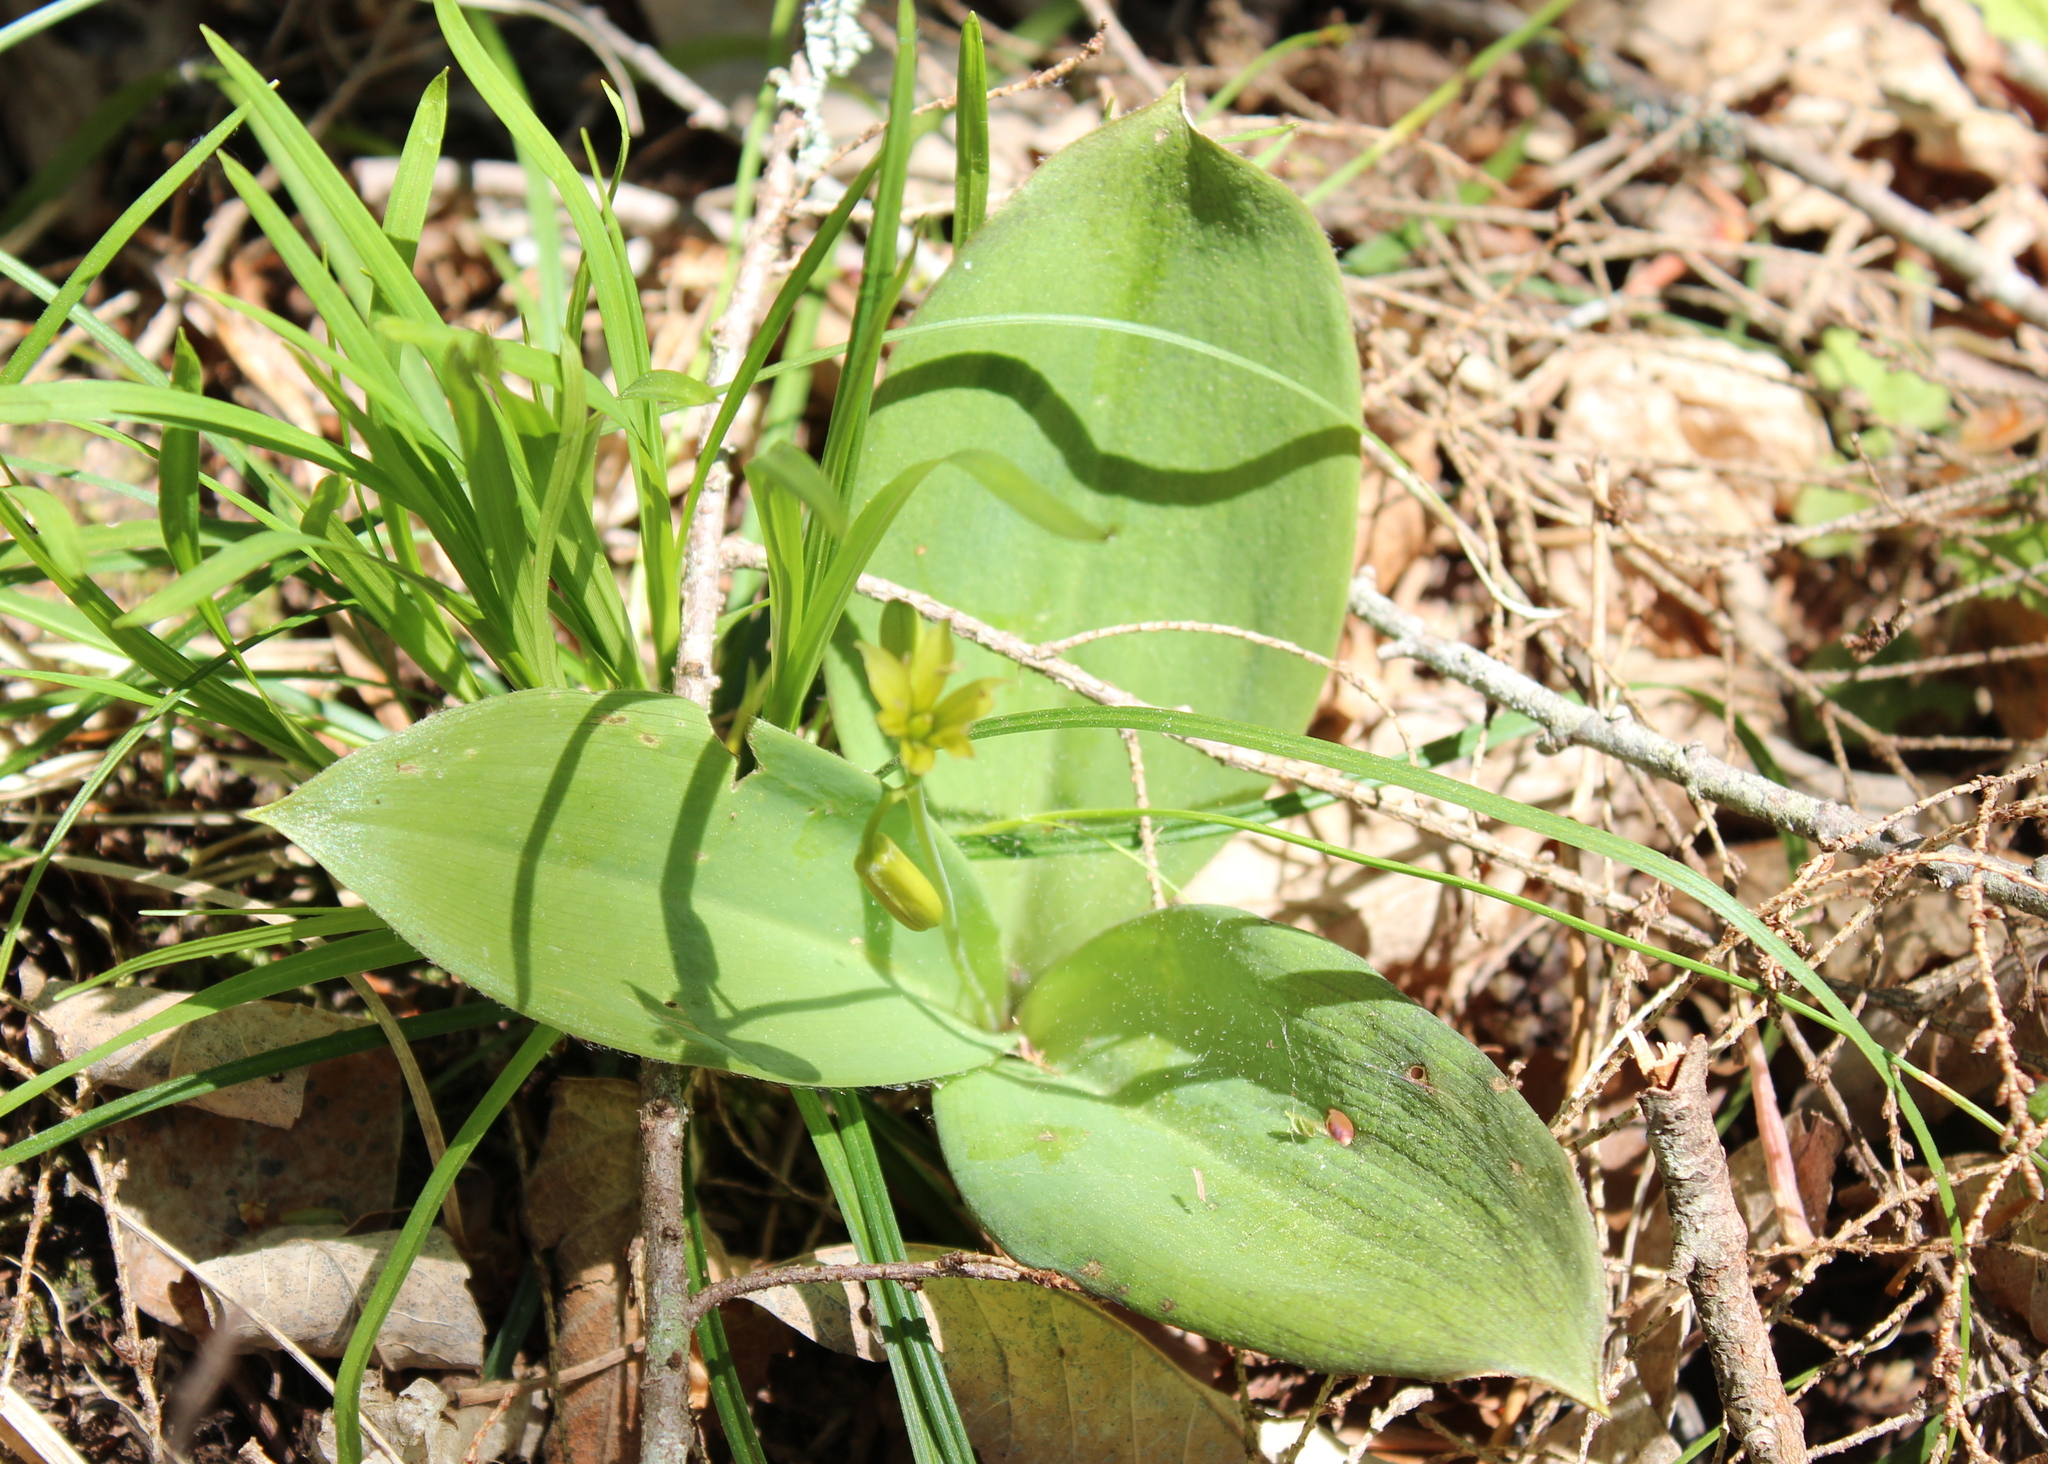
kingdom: Plantae
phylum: Tracheophyta
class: Liliopsida
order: Liliales
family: Liliaceae
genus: Clintonia
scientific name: Clintonia borealis
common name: Yellow clintonia
